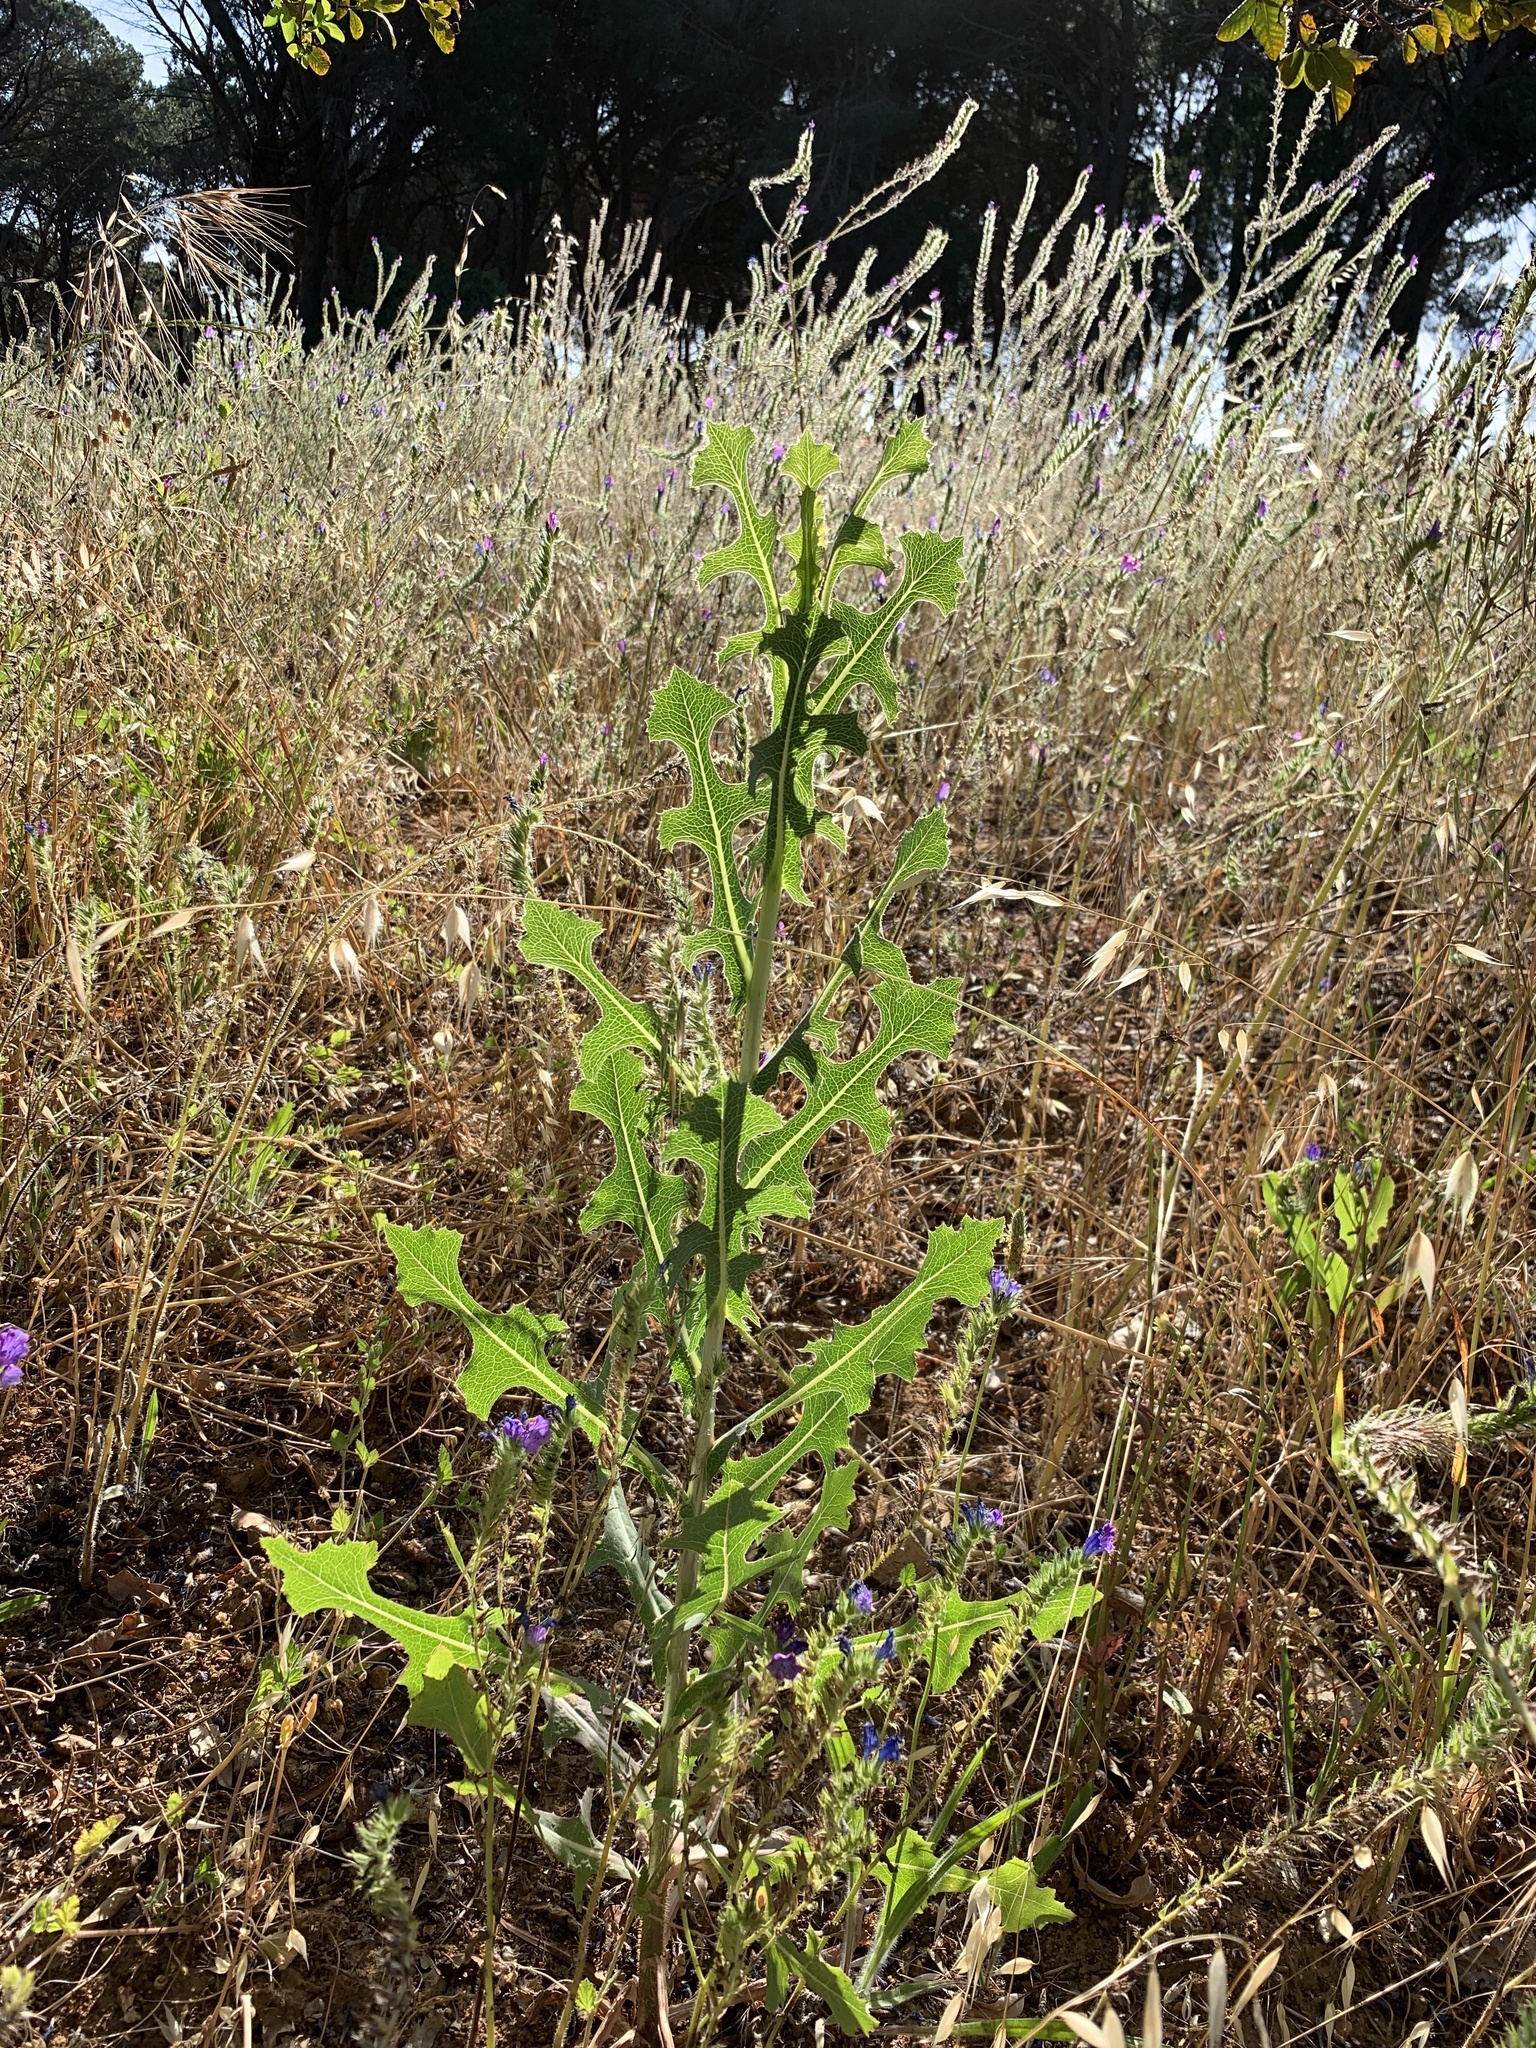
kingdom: Plantae
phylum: Tracheophyta
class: Magnoliopsida
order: Asterales
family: Asteraceae
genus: Lactuca
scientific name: Lactuca serriola
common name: Prickly lettuce
